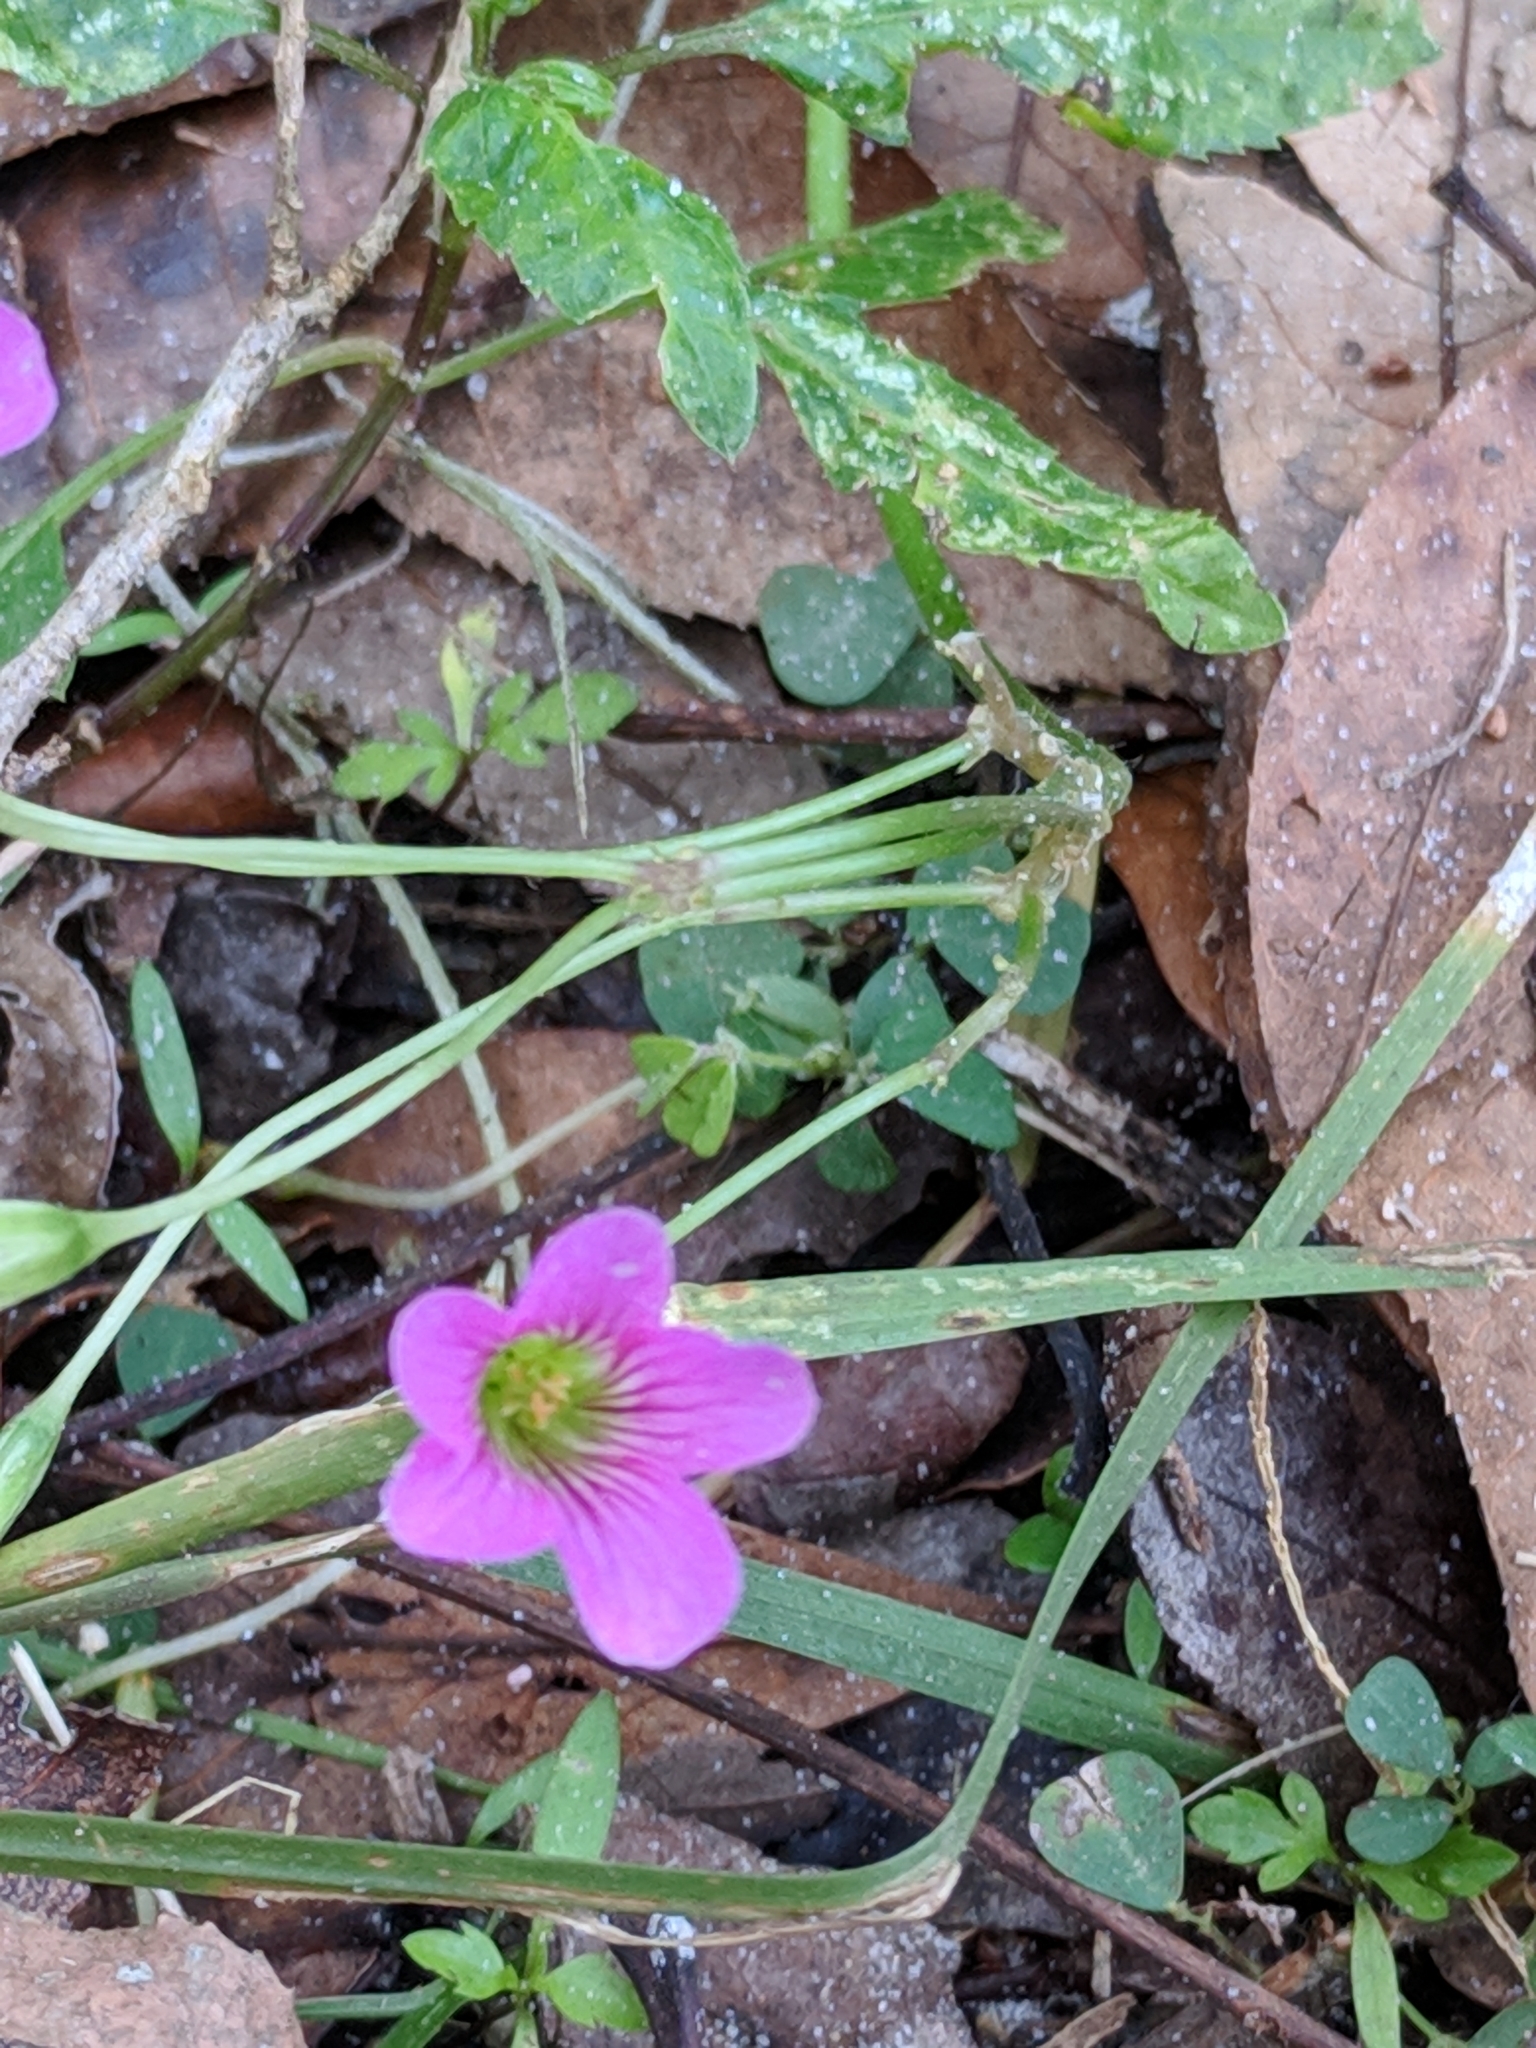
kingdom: Plantae
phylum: Tracheophyta
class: Magnoliopsida
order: Oxalidales
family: Oxalidaceae
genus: Oxalis
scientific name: Oxalis debilis
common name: Large-flowered pink-sorrel
